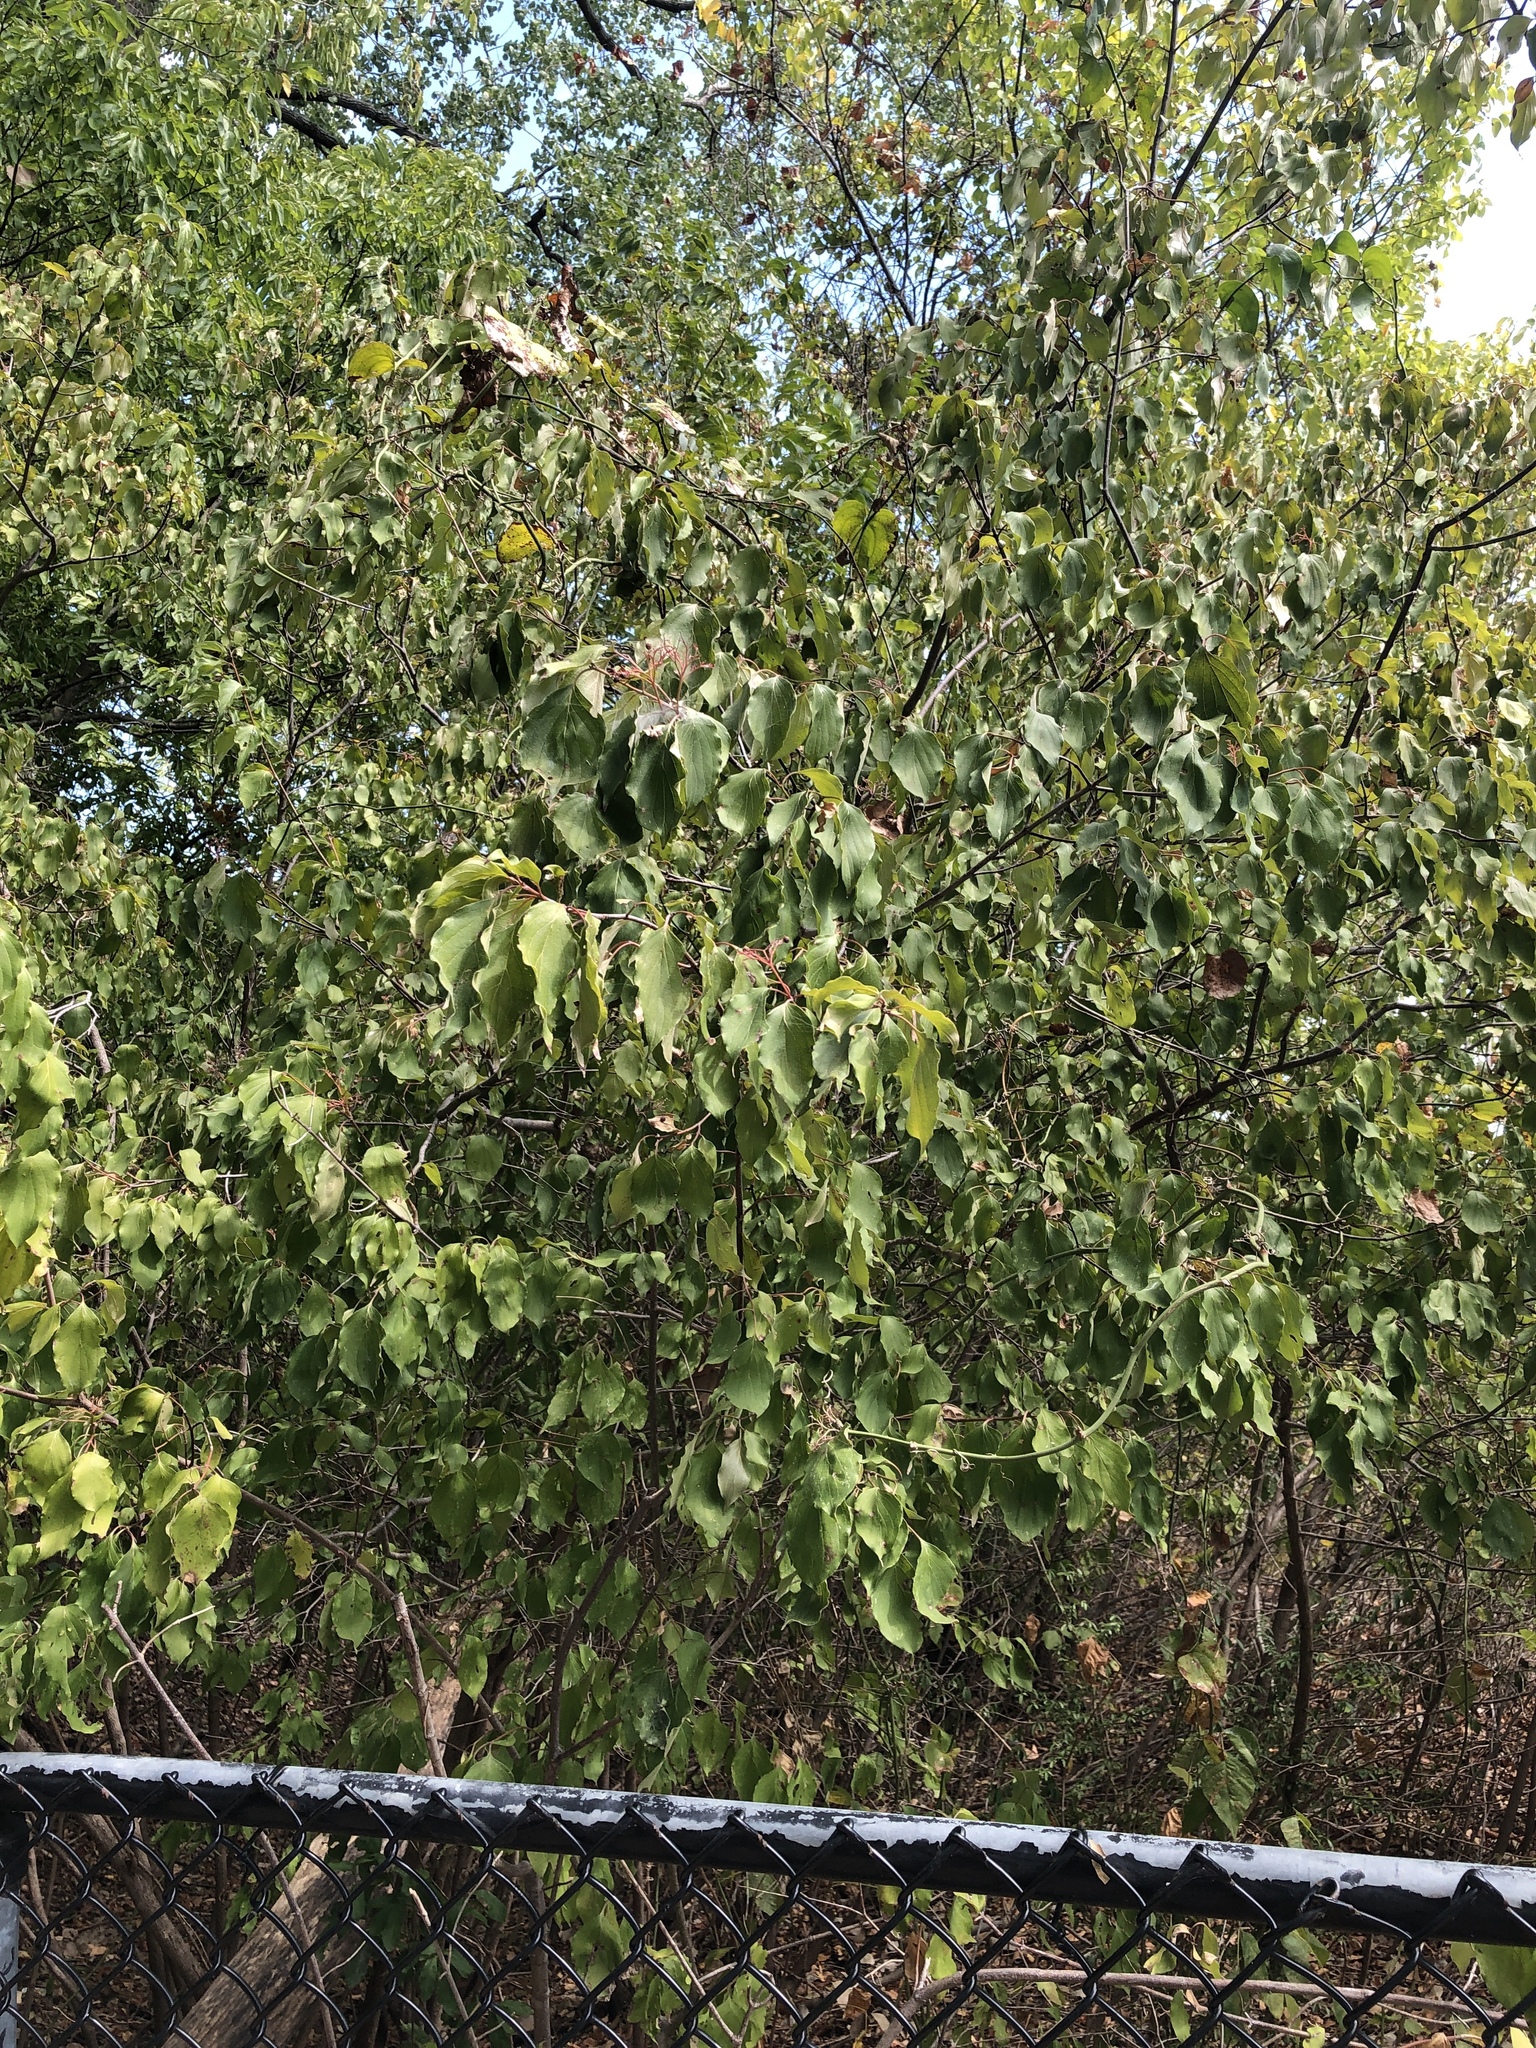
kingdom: Plantae
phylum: Tracheophyta
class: Magnoliopsida
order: Cornales
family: Cornaceae
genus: Cornus
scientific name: Cornus drummondii
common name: Rough-leaf dogwood
